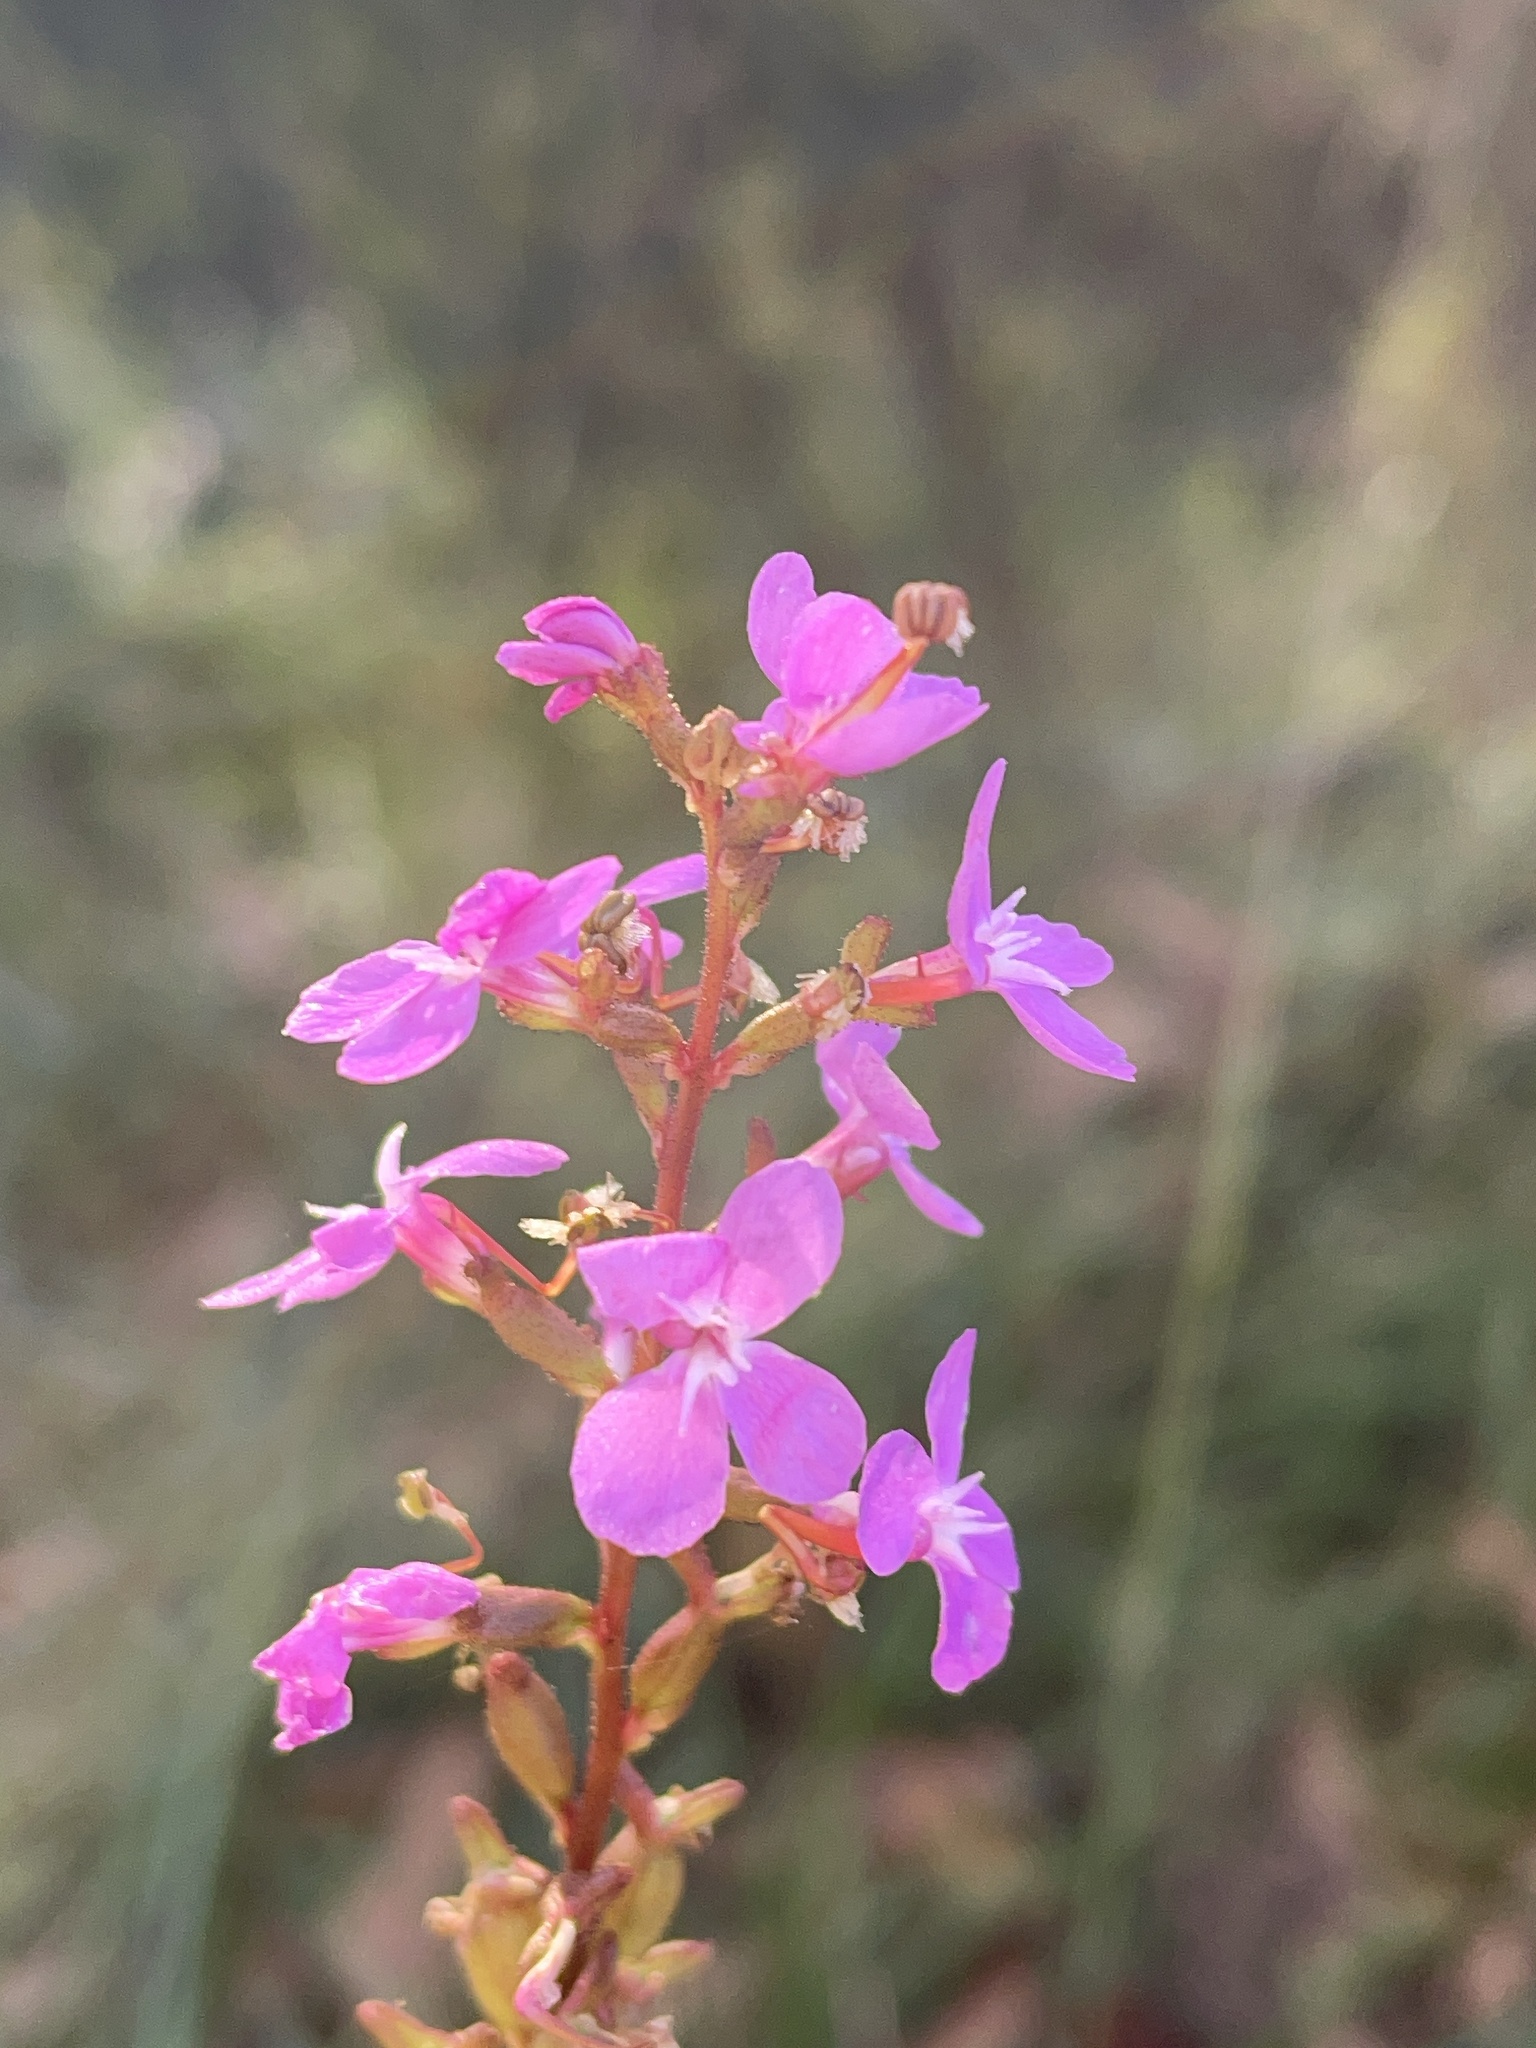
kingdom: Plantae
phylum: Tracheophyta
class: Magnoliopsida
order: Asterales
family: Stylidiaceae
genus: Stylidium
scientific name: Stylidium armeria
